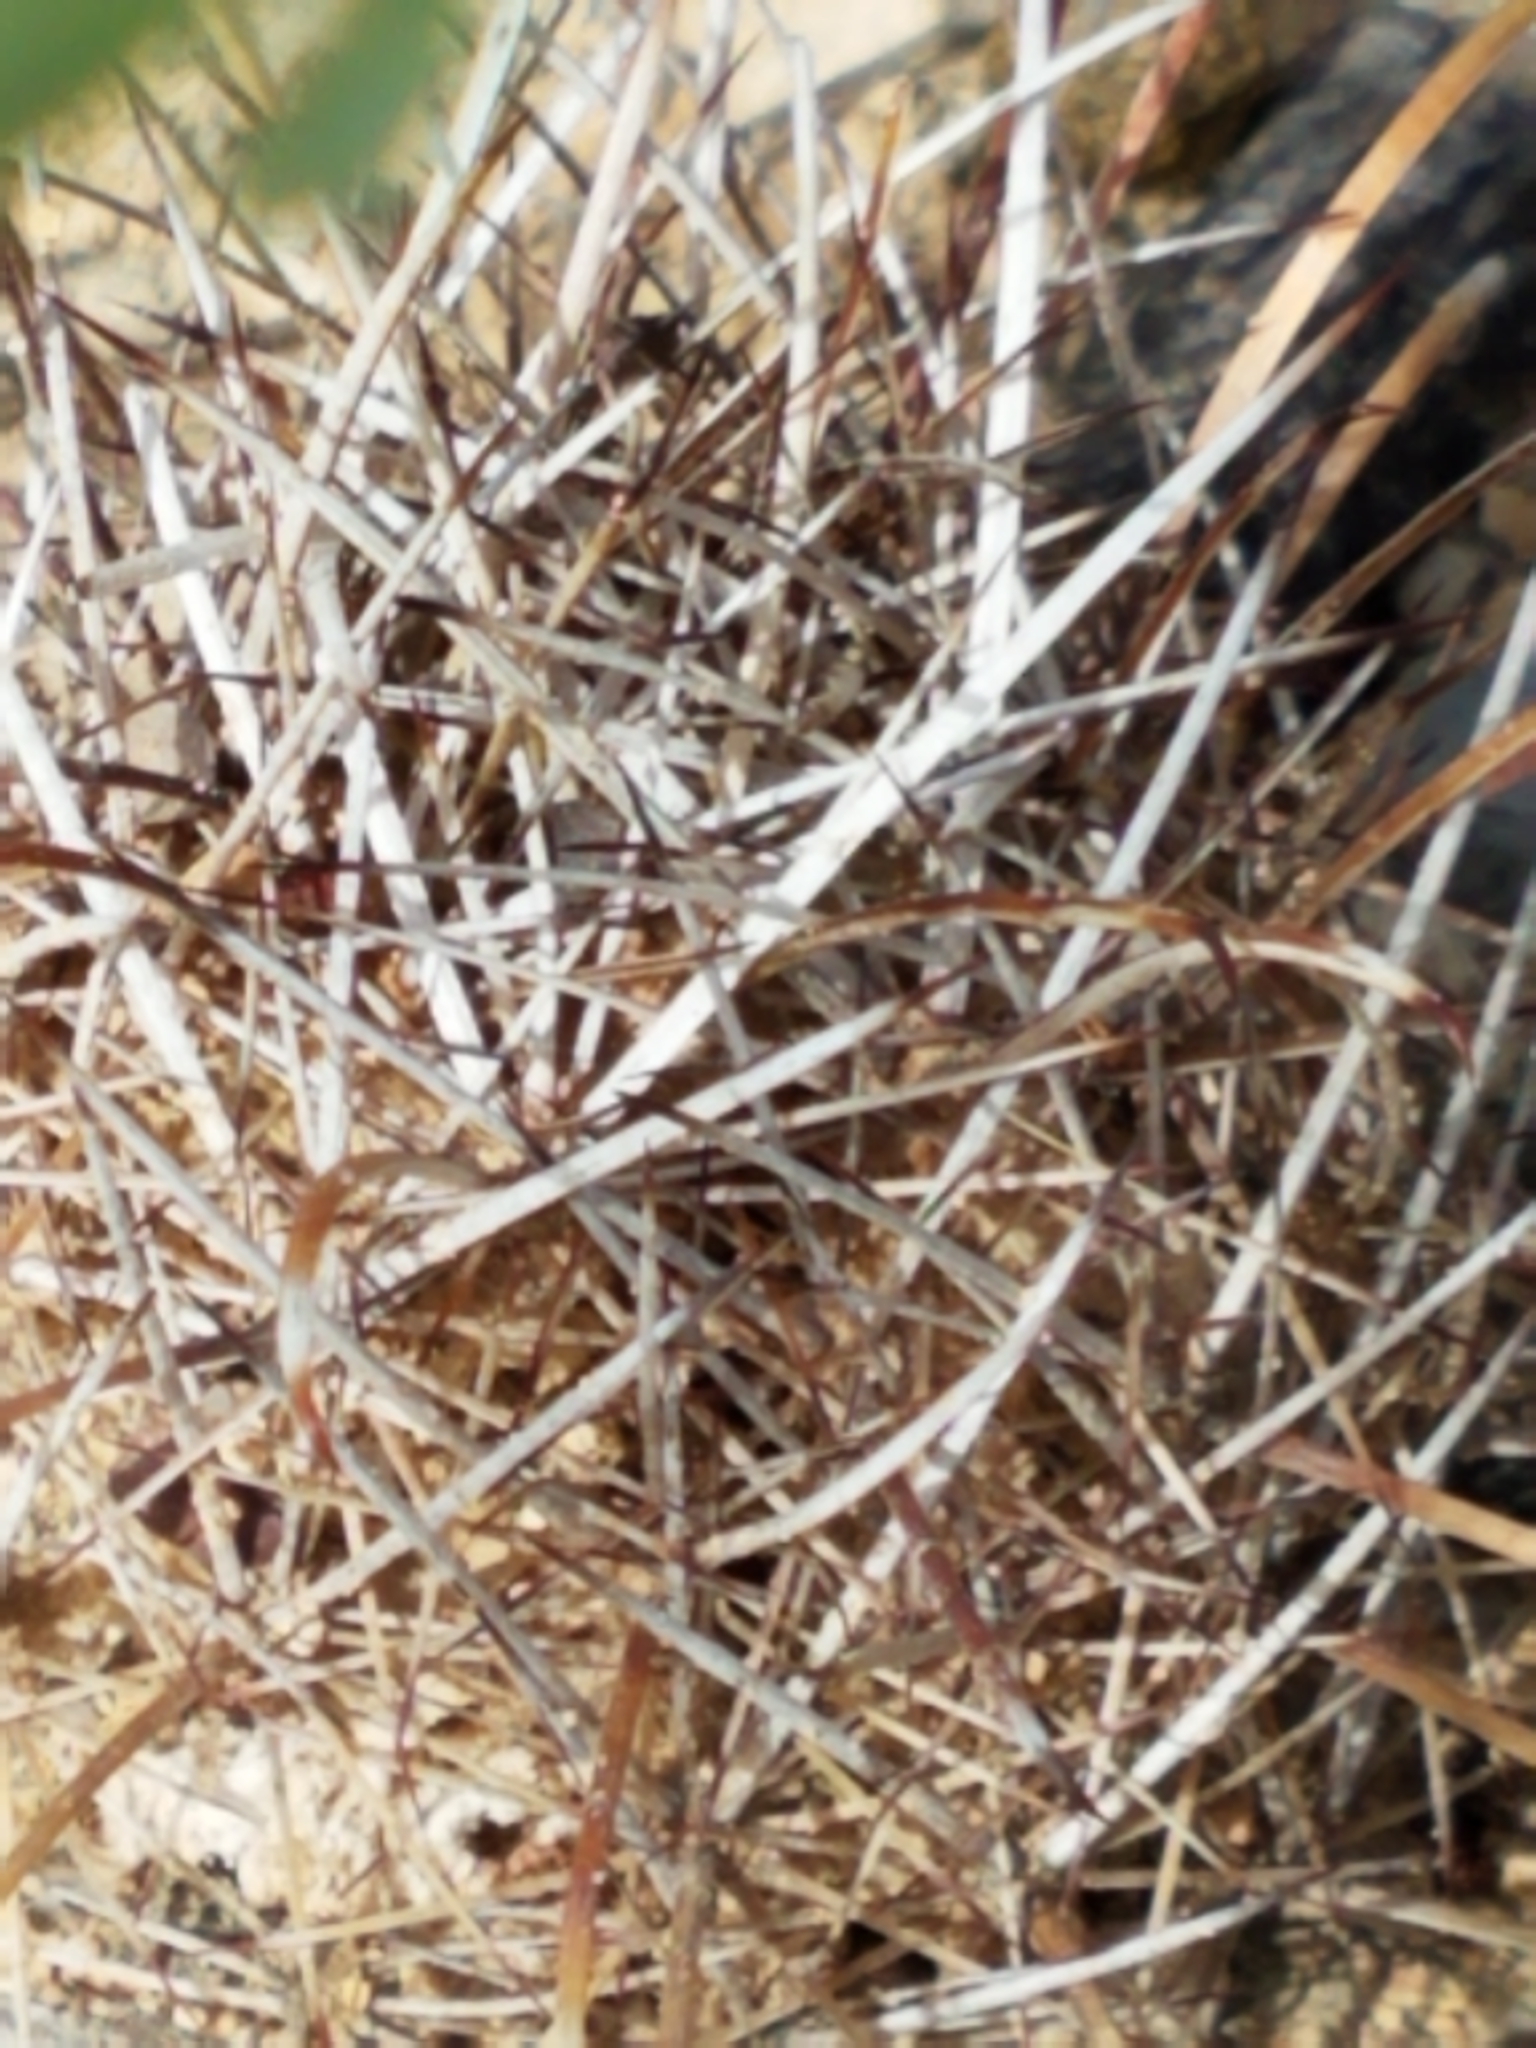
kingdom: Plantae
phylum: Tracheophyta
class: Magnoliopsida
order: Caryophyllales
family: Cactaceae
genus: Sclerocactus
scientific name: Sclerocactus brevihamatus
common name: Engelmann's fishhook cactus
